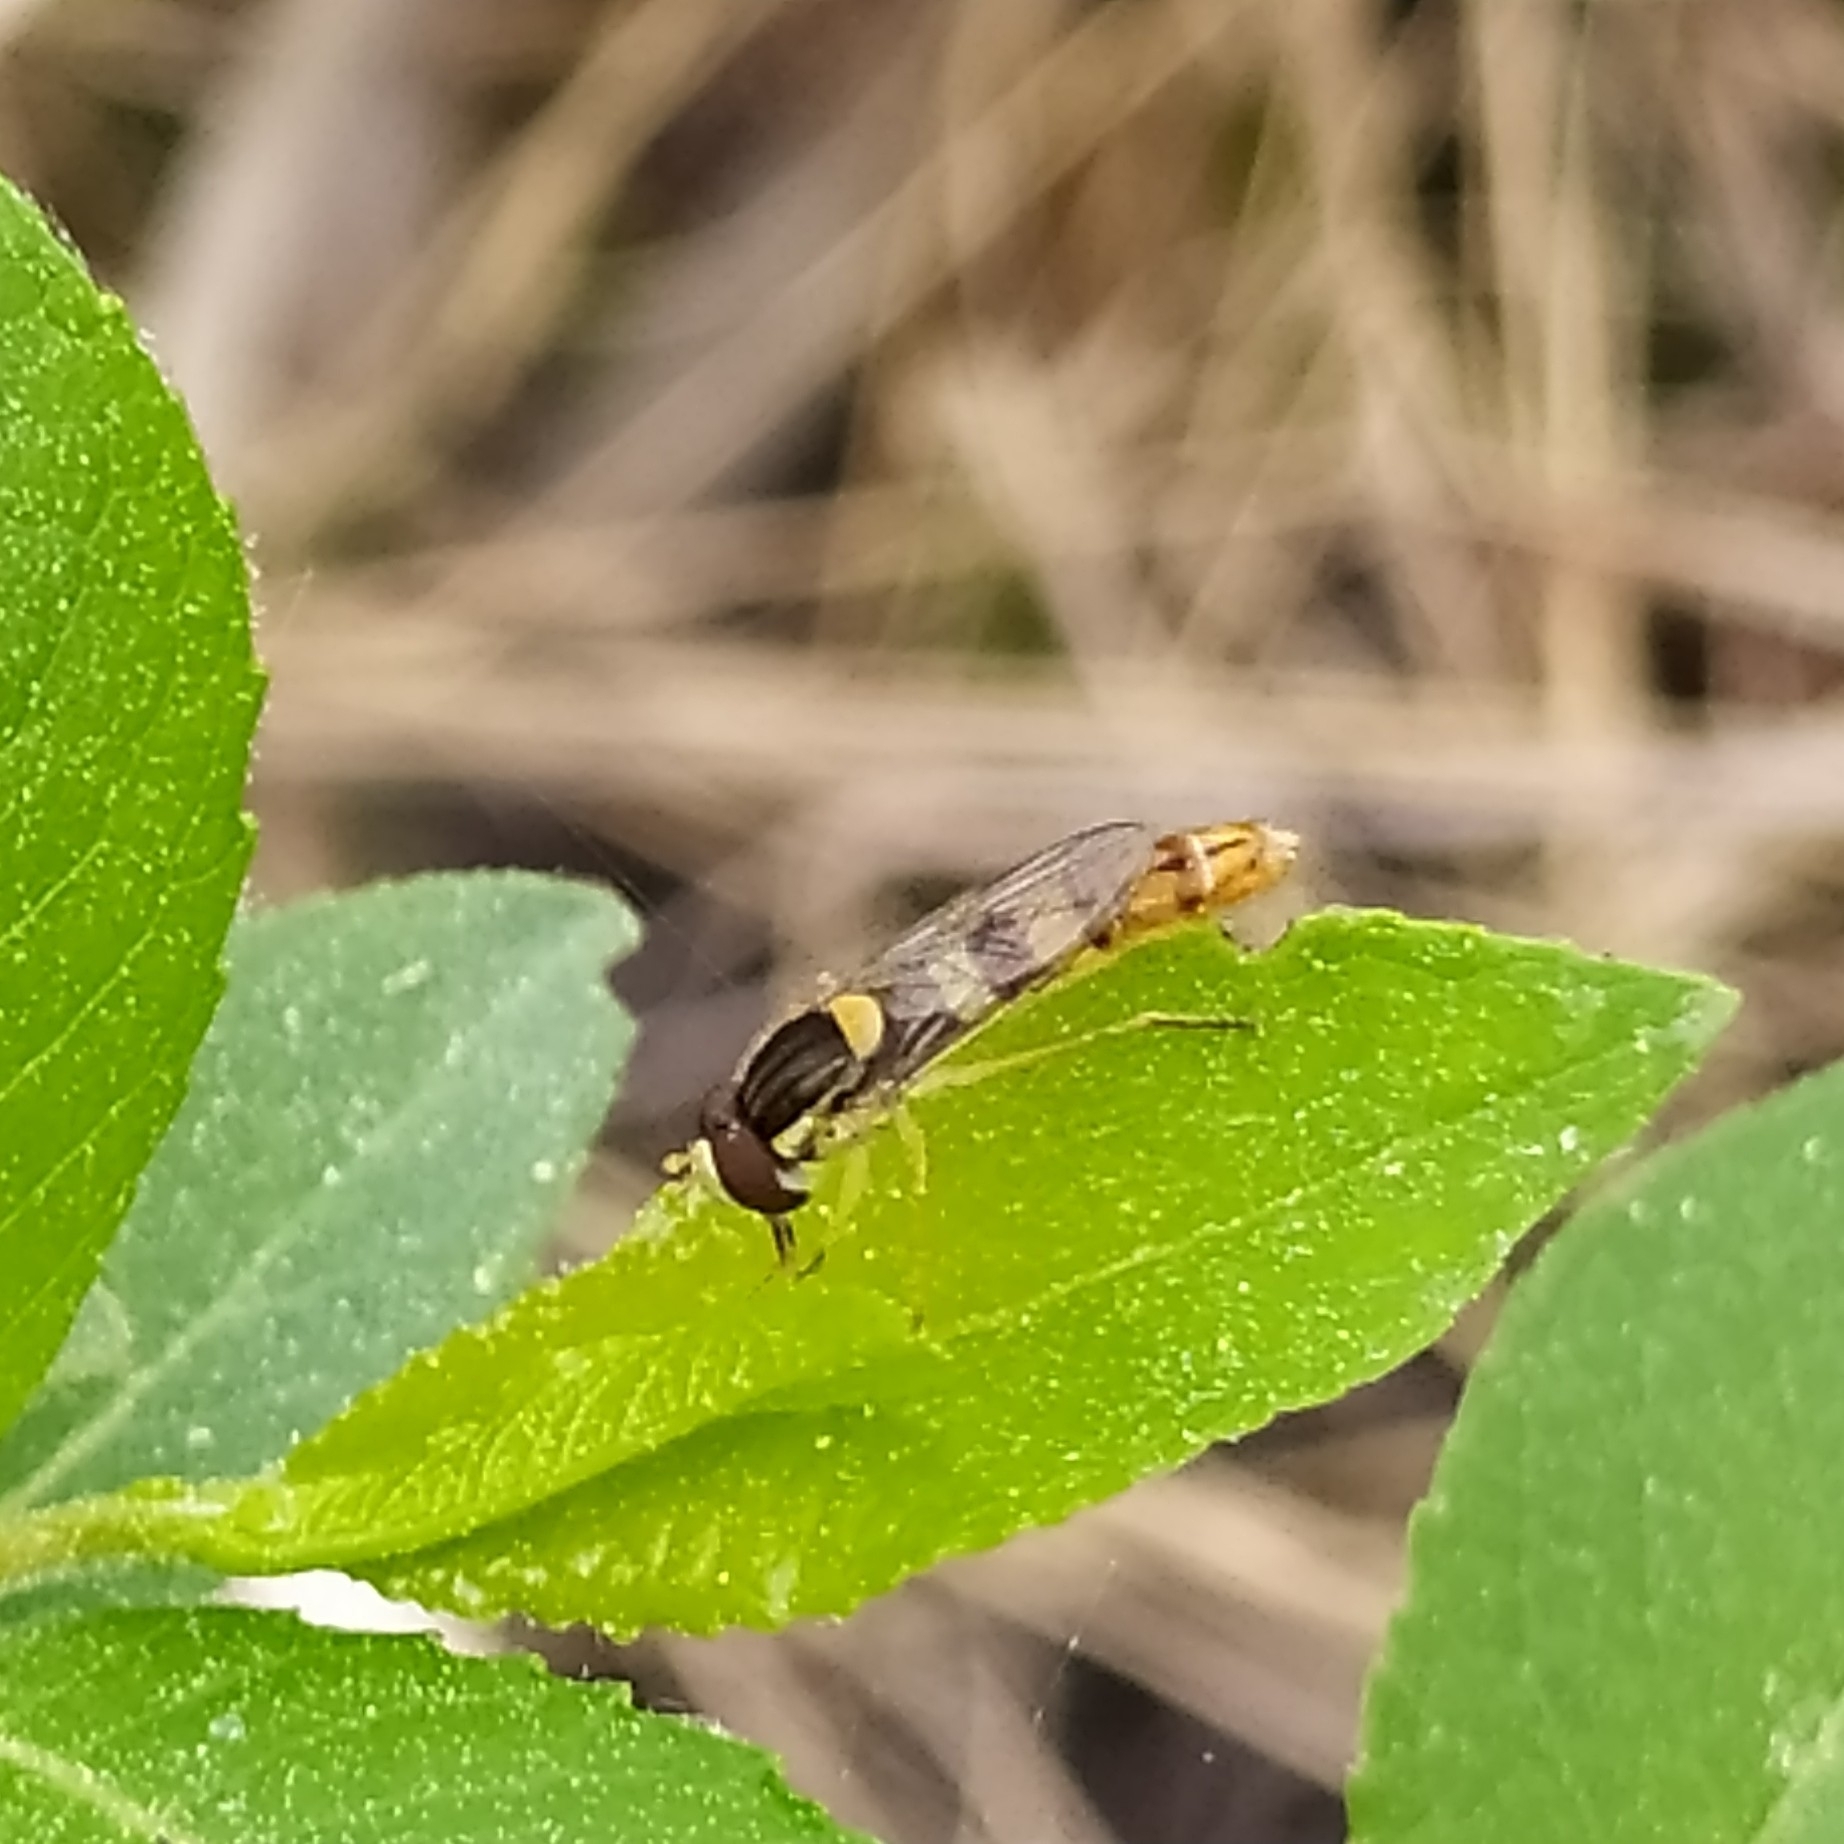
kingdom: Animalia
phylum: Arthropoda
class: Insecta
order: Diptera
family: Syrphidae
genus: Sphaerophoria
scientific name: Sphaerophoria scripta
